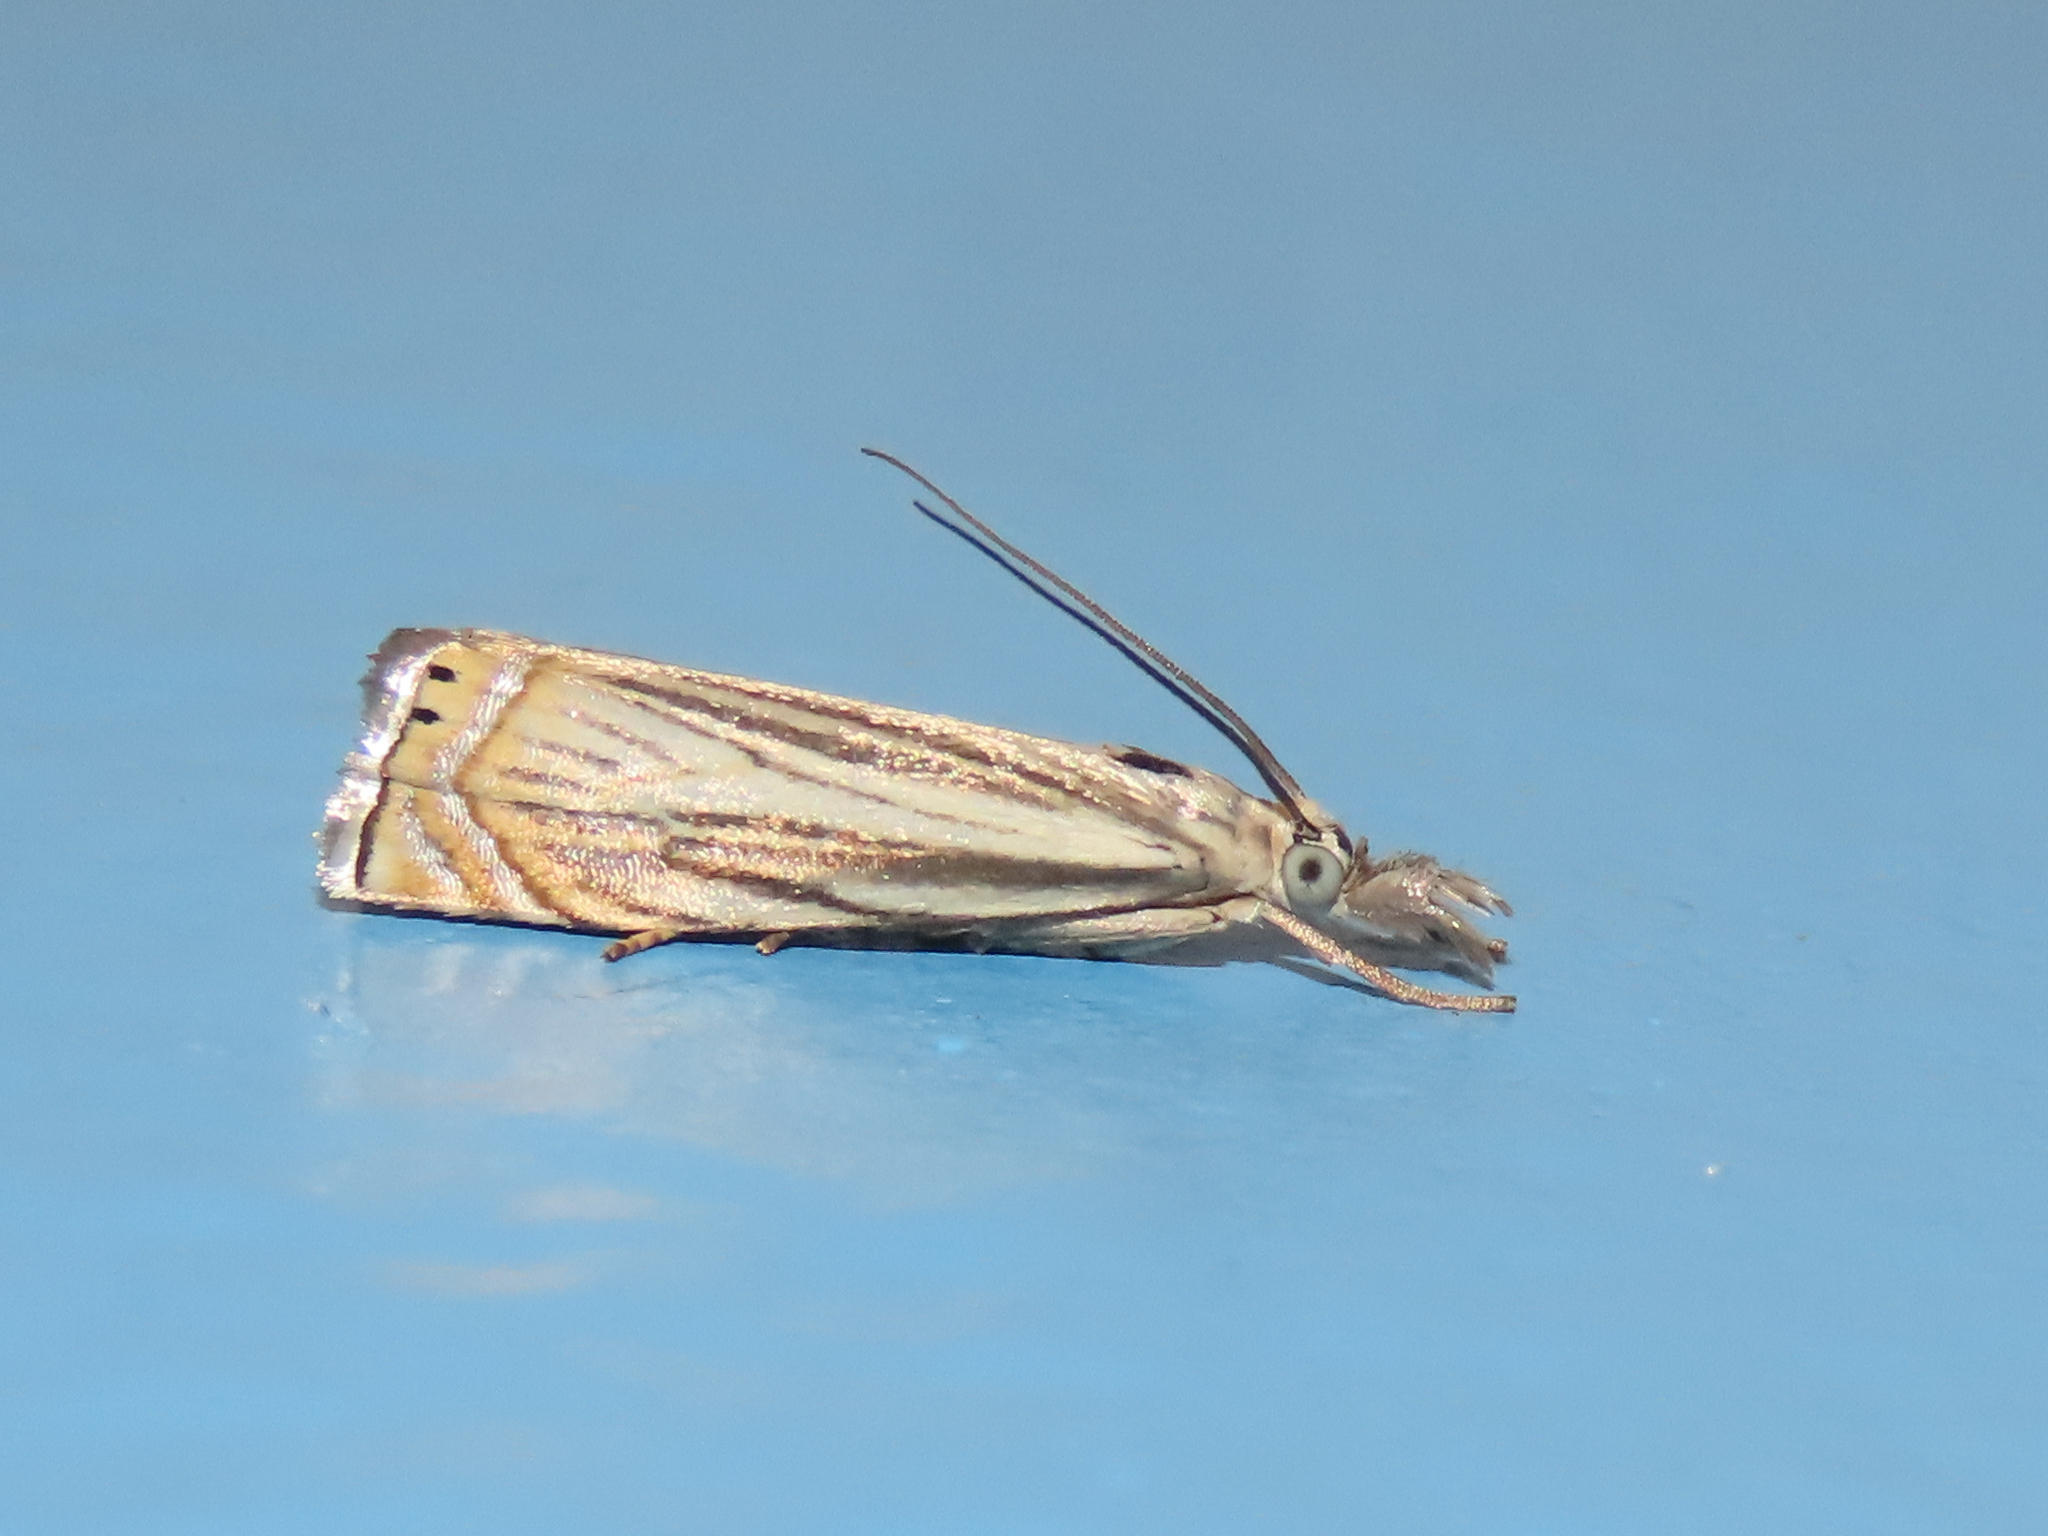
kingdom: Animalia
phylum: Arthropoda
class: Insecta
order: Lepidoptera
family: Crambidae
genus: Chrysoteuchia
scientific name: Chrysoteuchia topiarius
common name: Topiary grass-veneer
